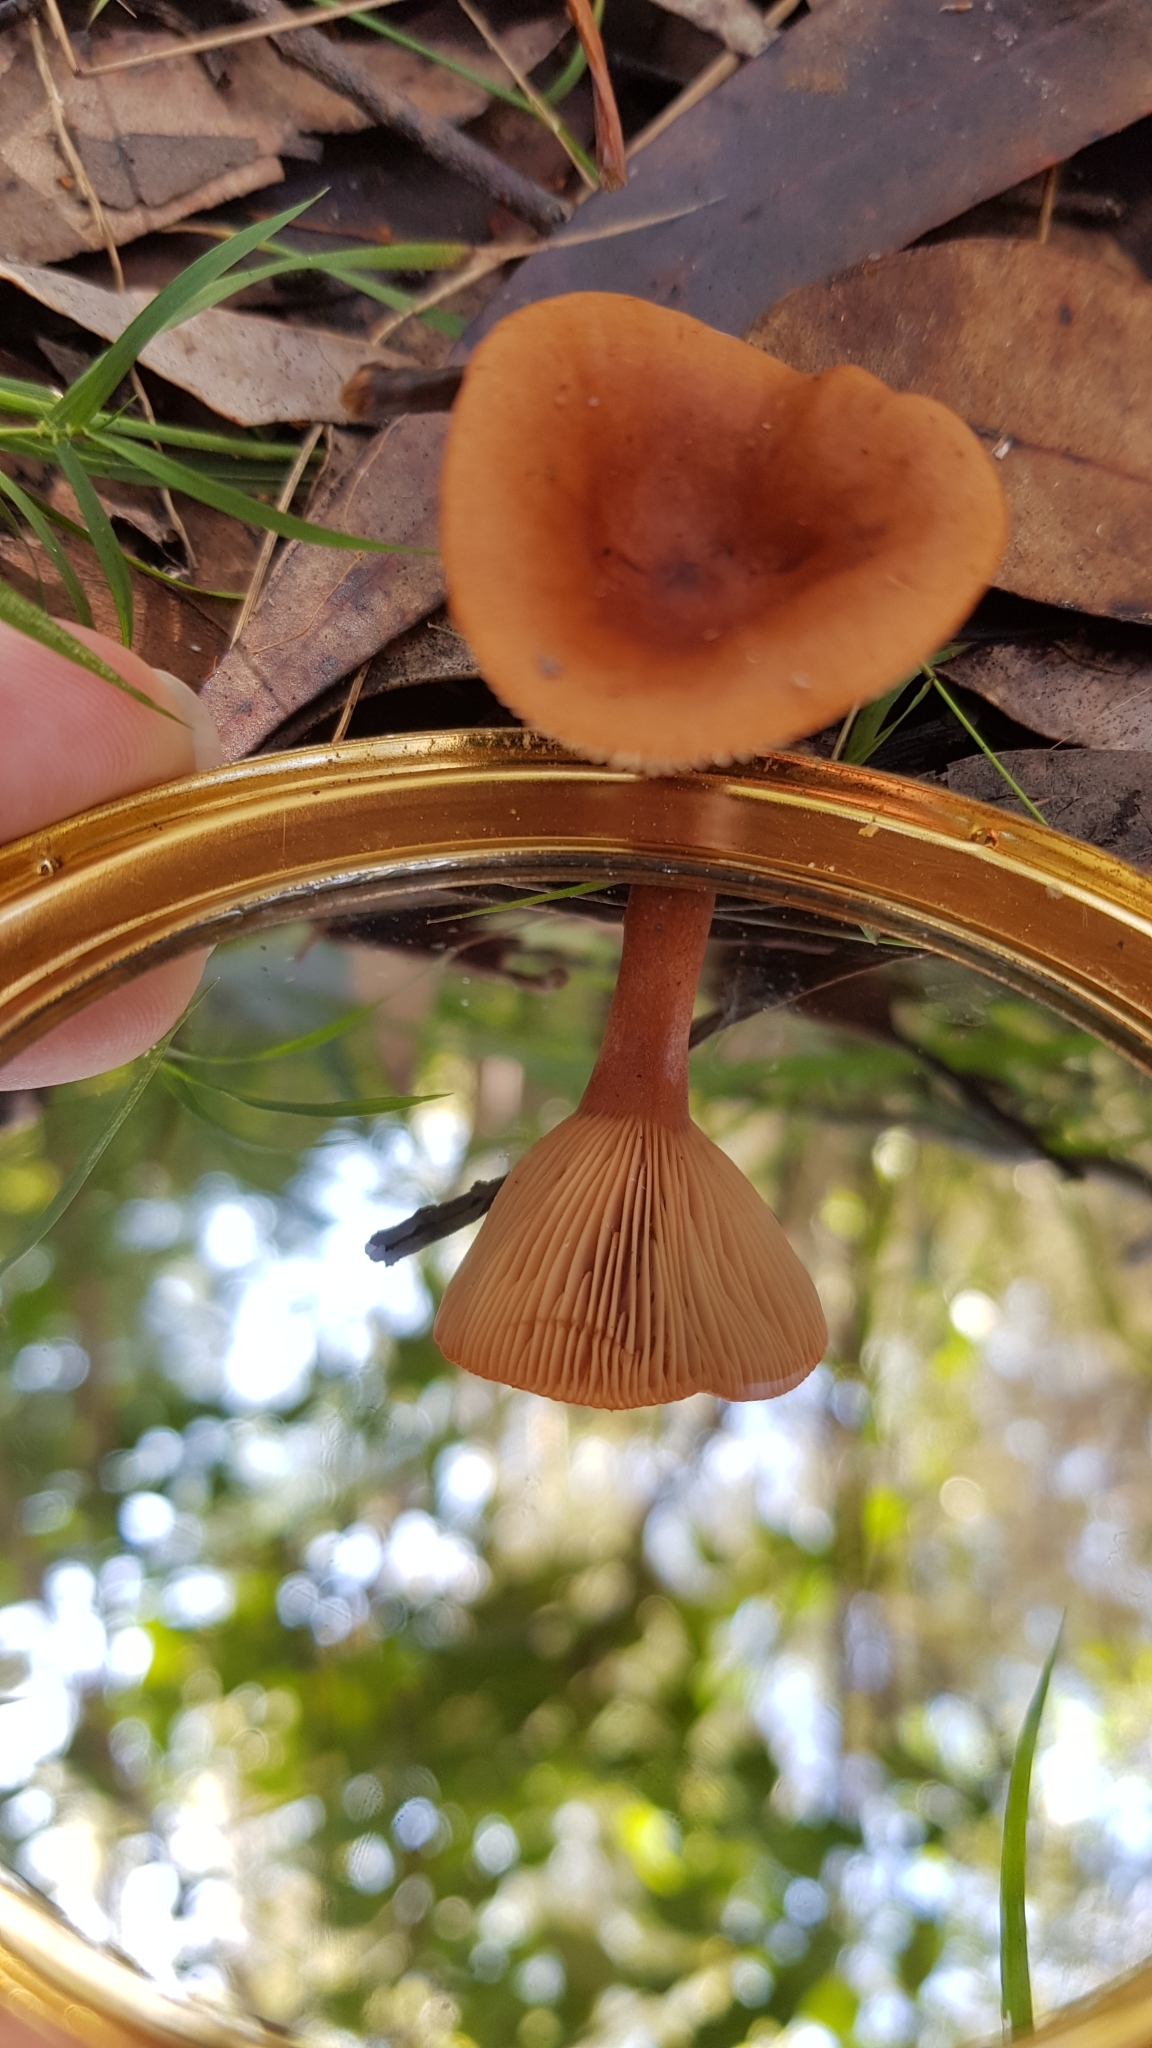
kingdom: Fungi
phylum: Basidiomycota
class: Agaricomycetes
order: Russulales
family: Russulaceae
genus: Lactarius
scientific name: Lactarius eucalypti
